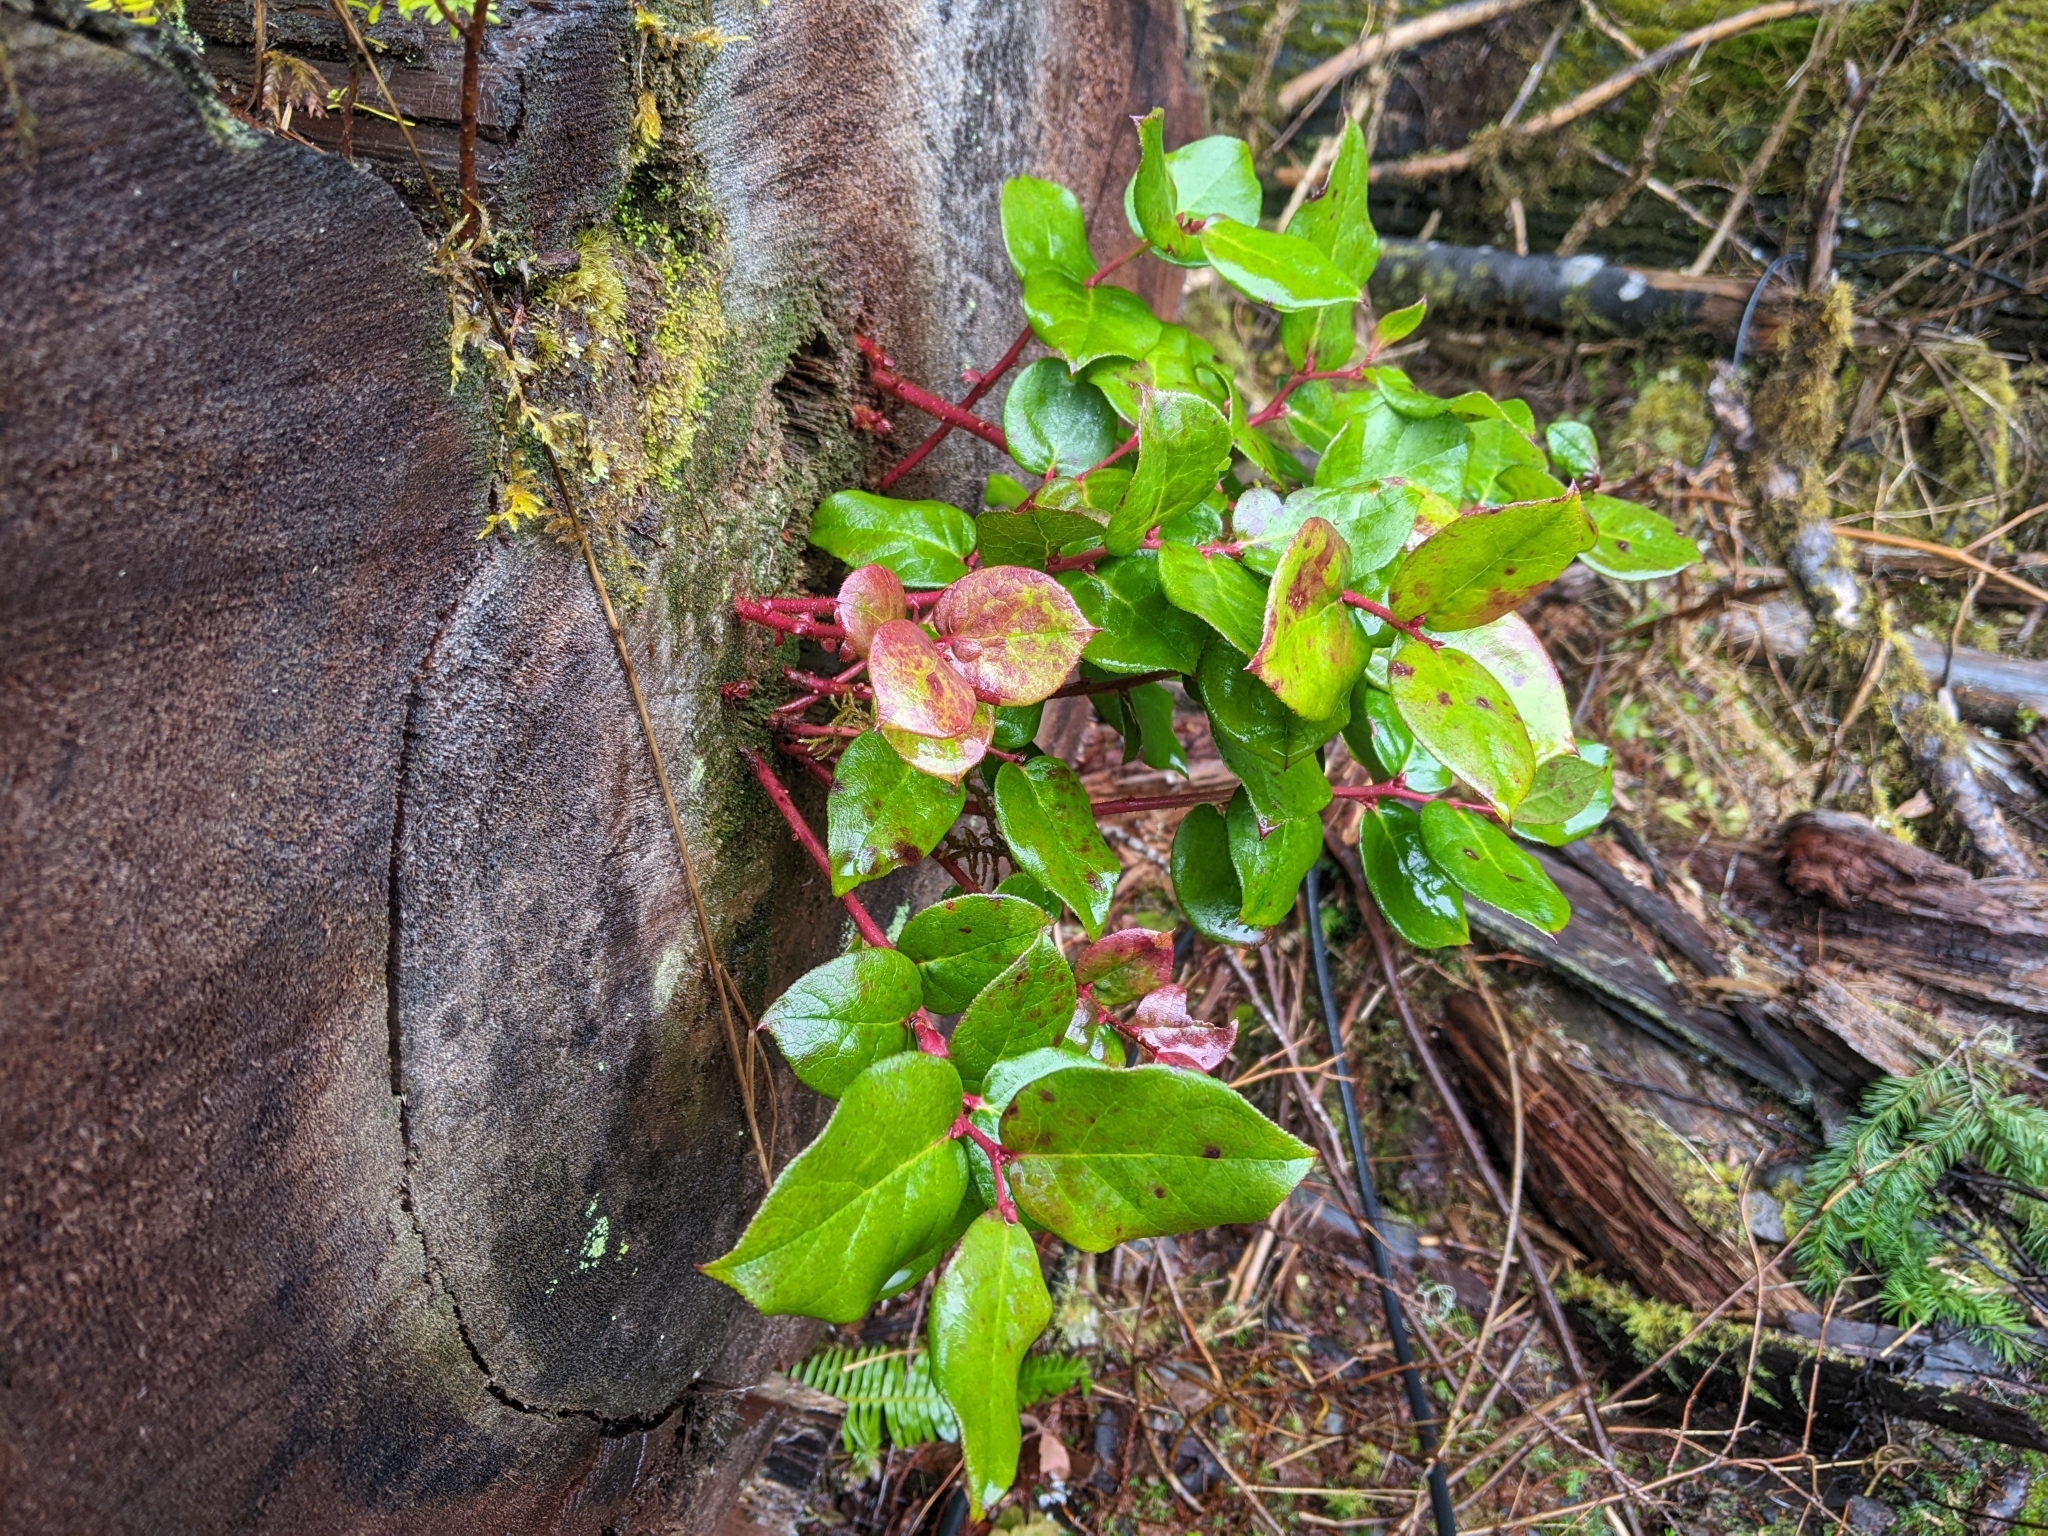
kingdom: Plantae
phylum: Tracheophyta
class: Magnoliopsida
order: Ericales
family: Ericaceae
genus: Gaultheria
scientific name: Gaultheria shallon
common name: Shallon
